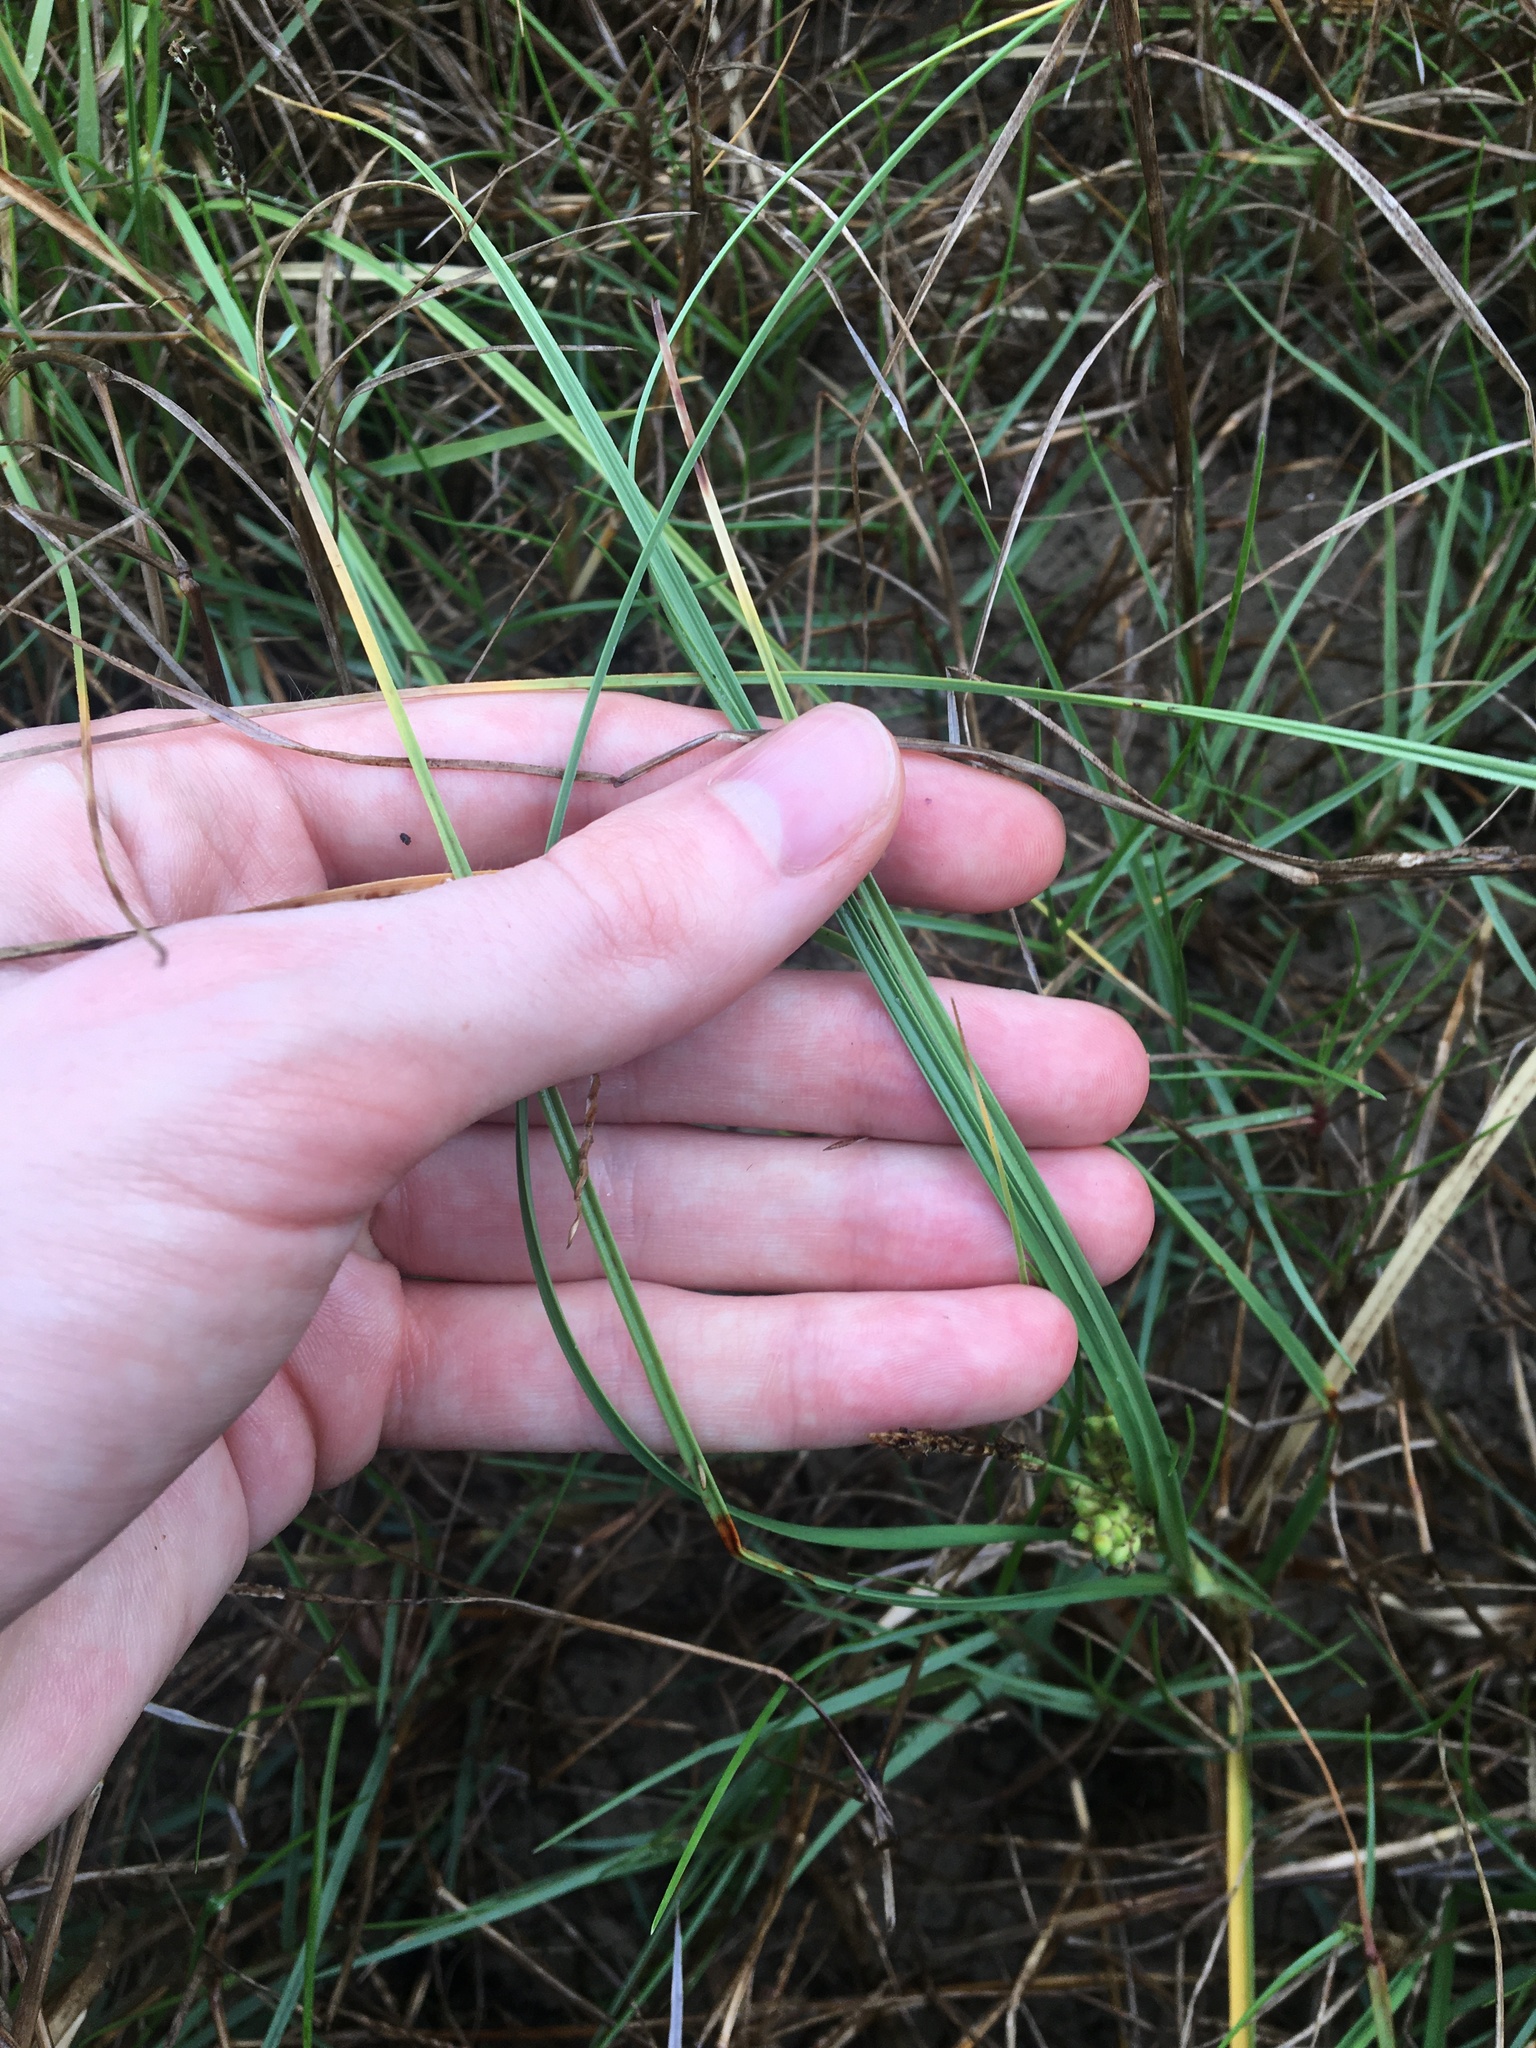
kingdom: Plantae
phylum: Tracheophyta
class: Liliopsida
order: Poales
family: Cyperaceae
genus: Carex
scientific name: Carex pumila
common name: Dwarf sedge
